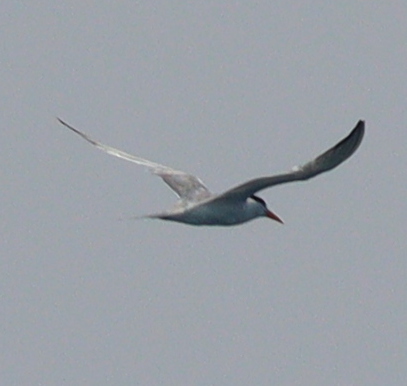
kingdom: Animalia
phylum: Chordata
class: Aves
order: Charadriiformes
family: Laridae
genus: Thalasseus
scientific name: Thalasseus bengalensis
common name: Lesser crested tern
